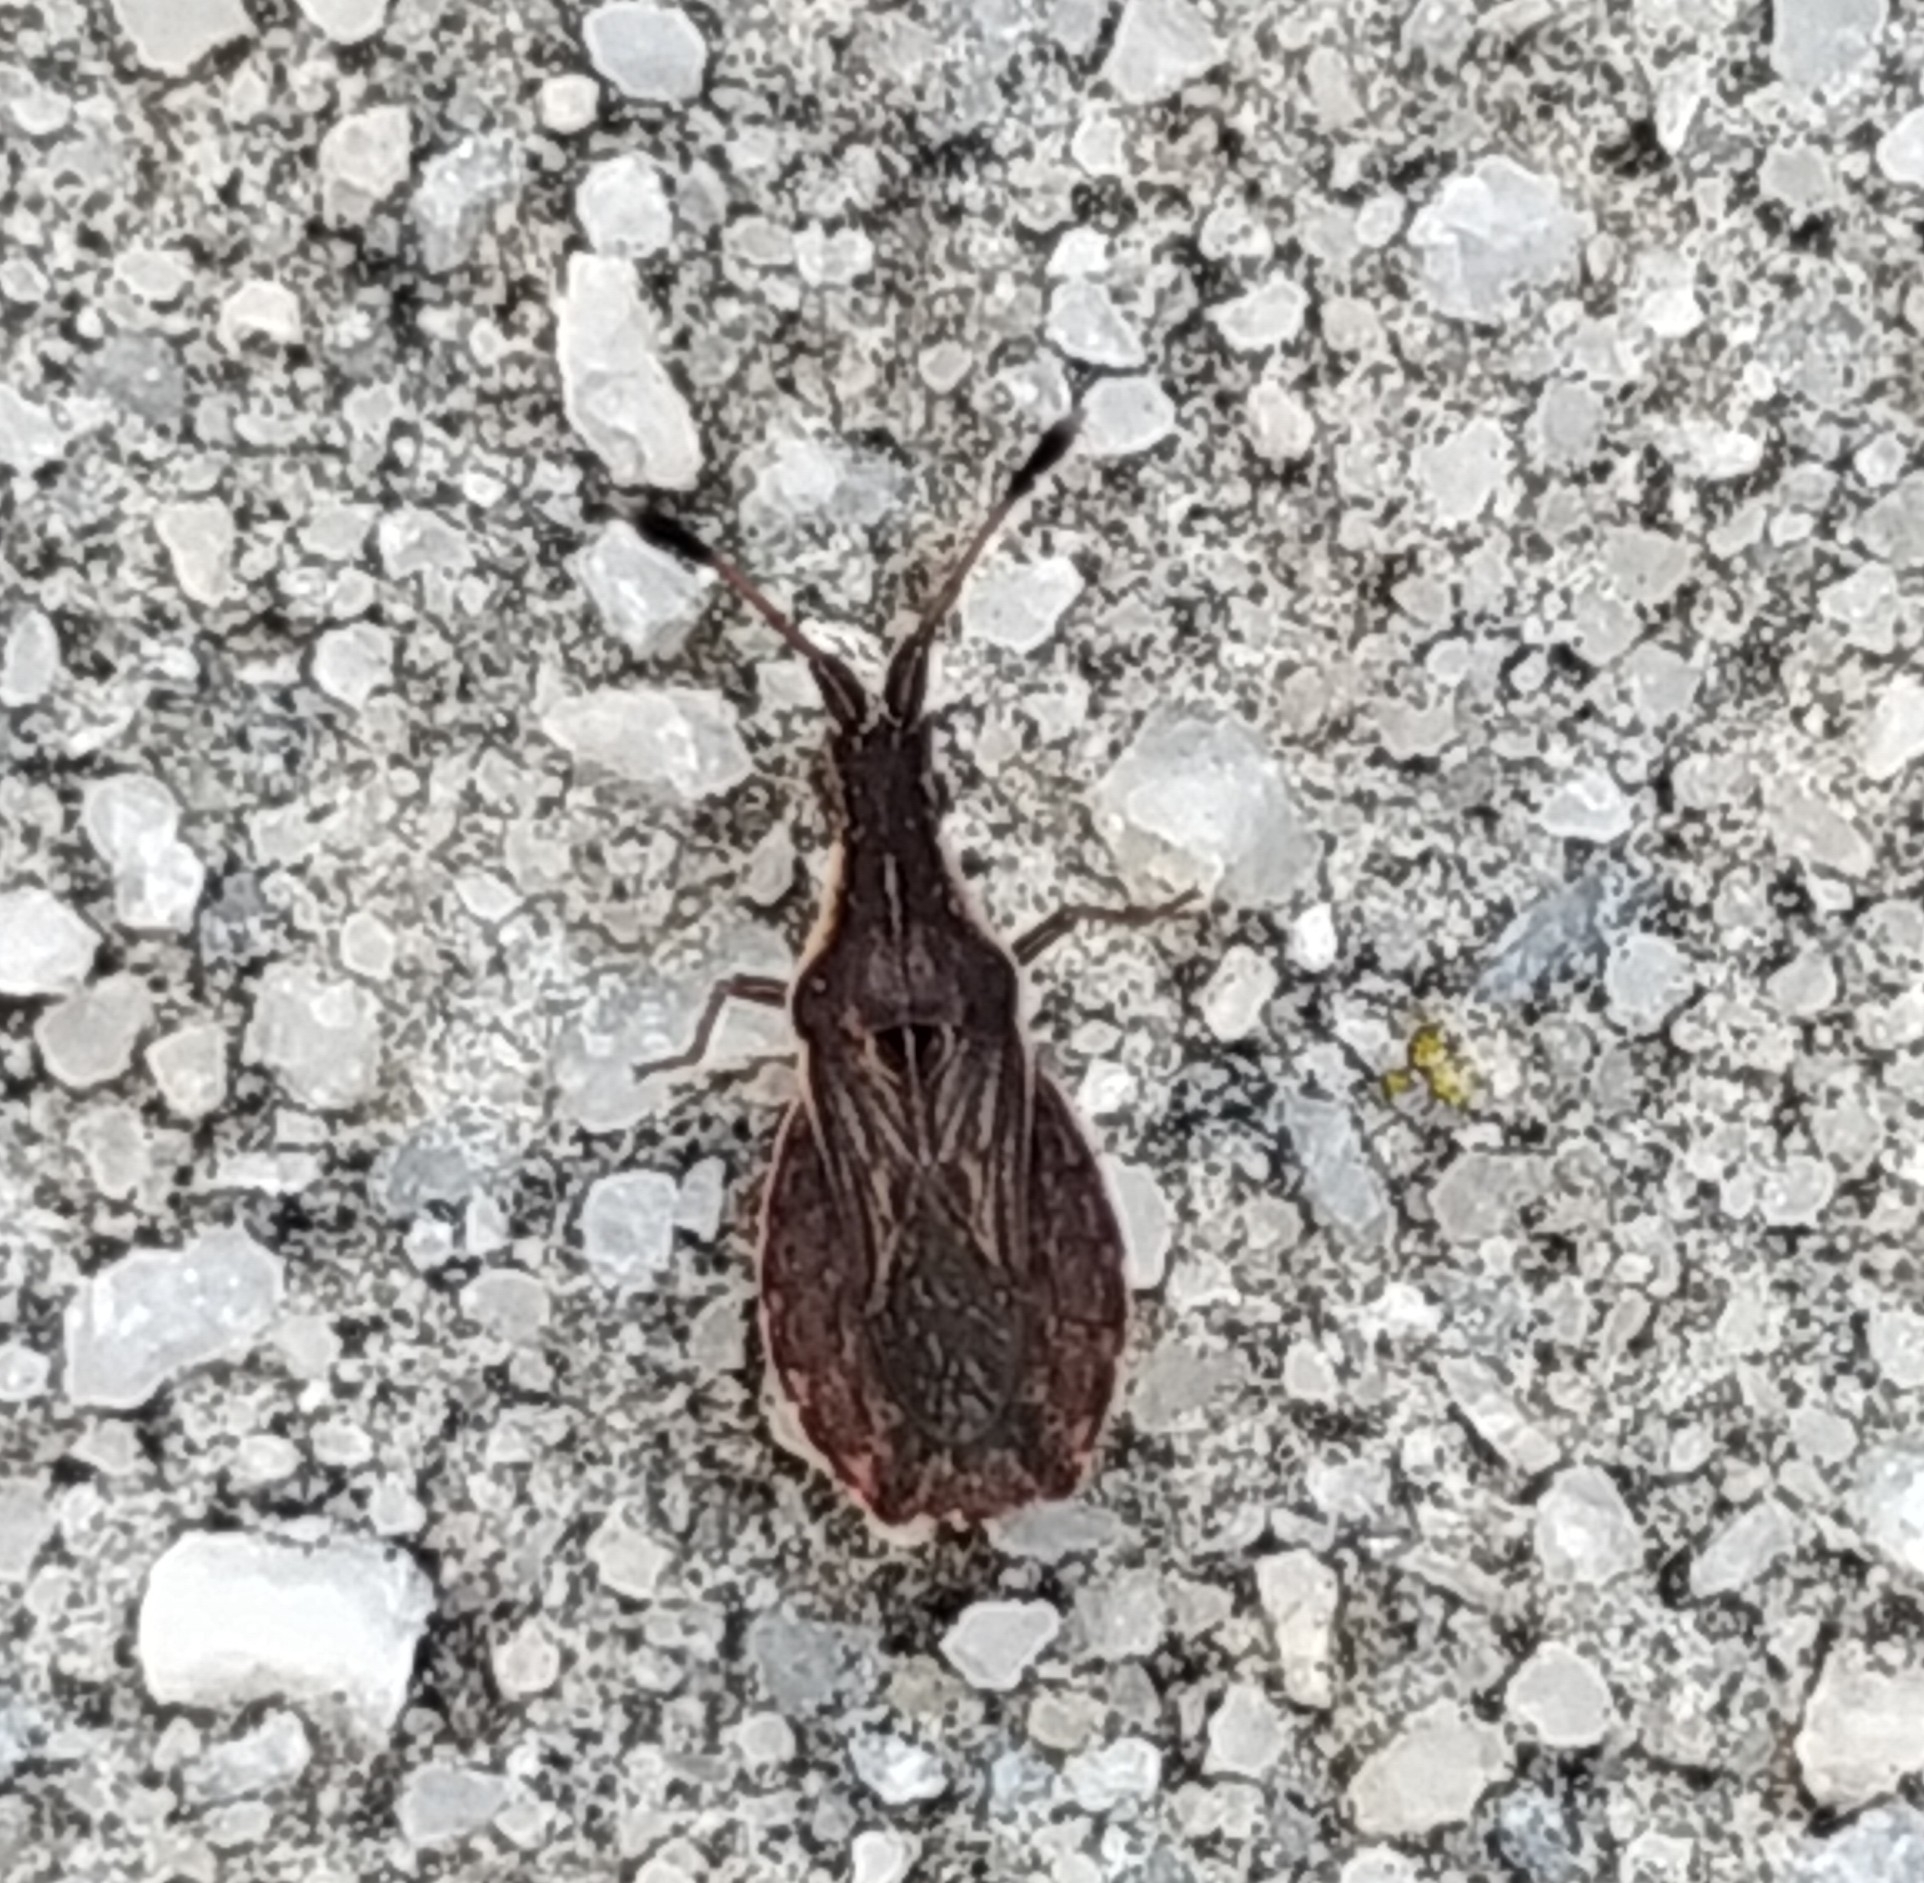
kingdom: Animalia
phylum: Arthropoda
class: Insecta
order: Hemiptera
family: Coreidae
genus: Spathocera
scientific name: Spathocera lobata
